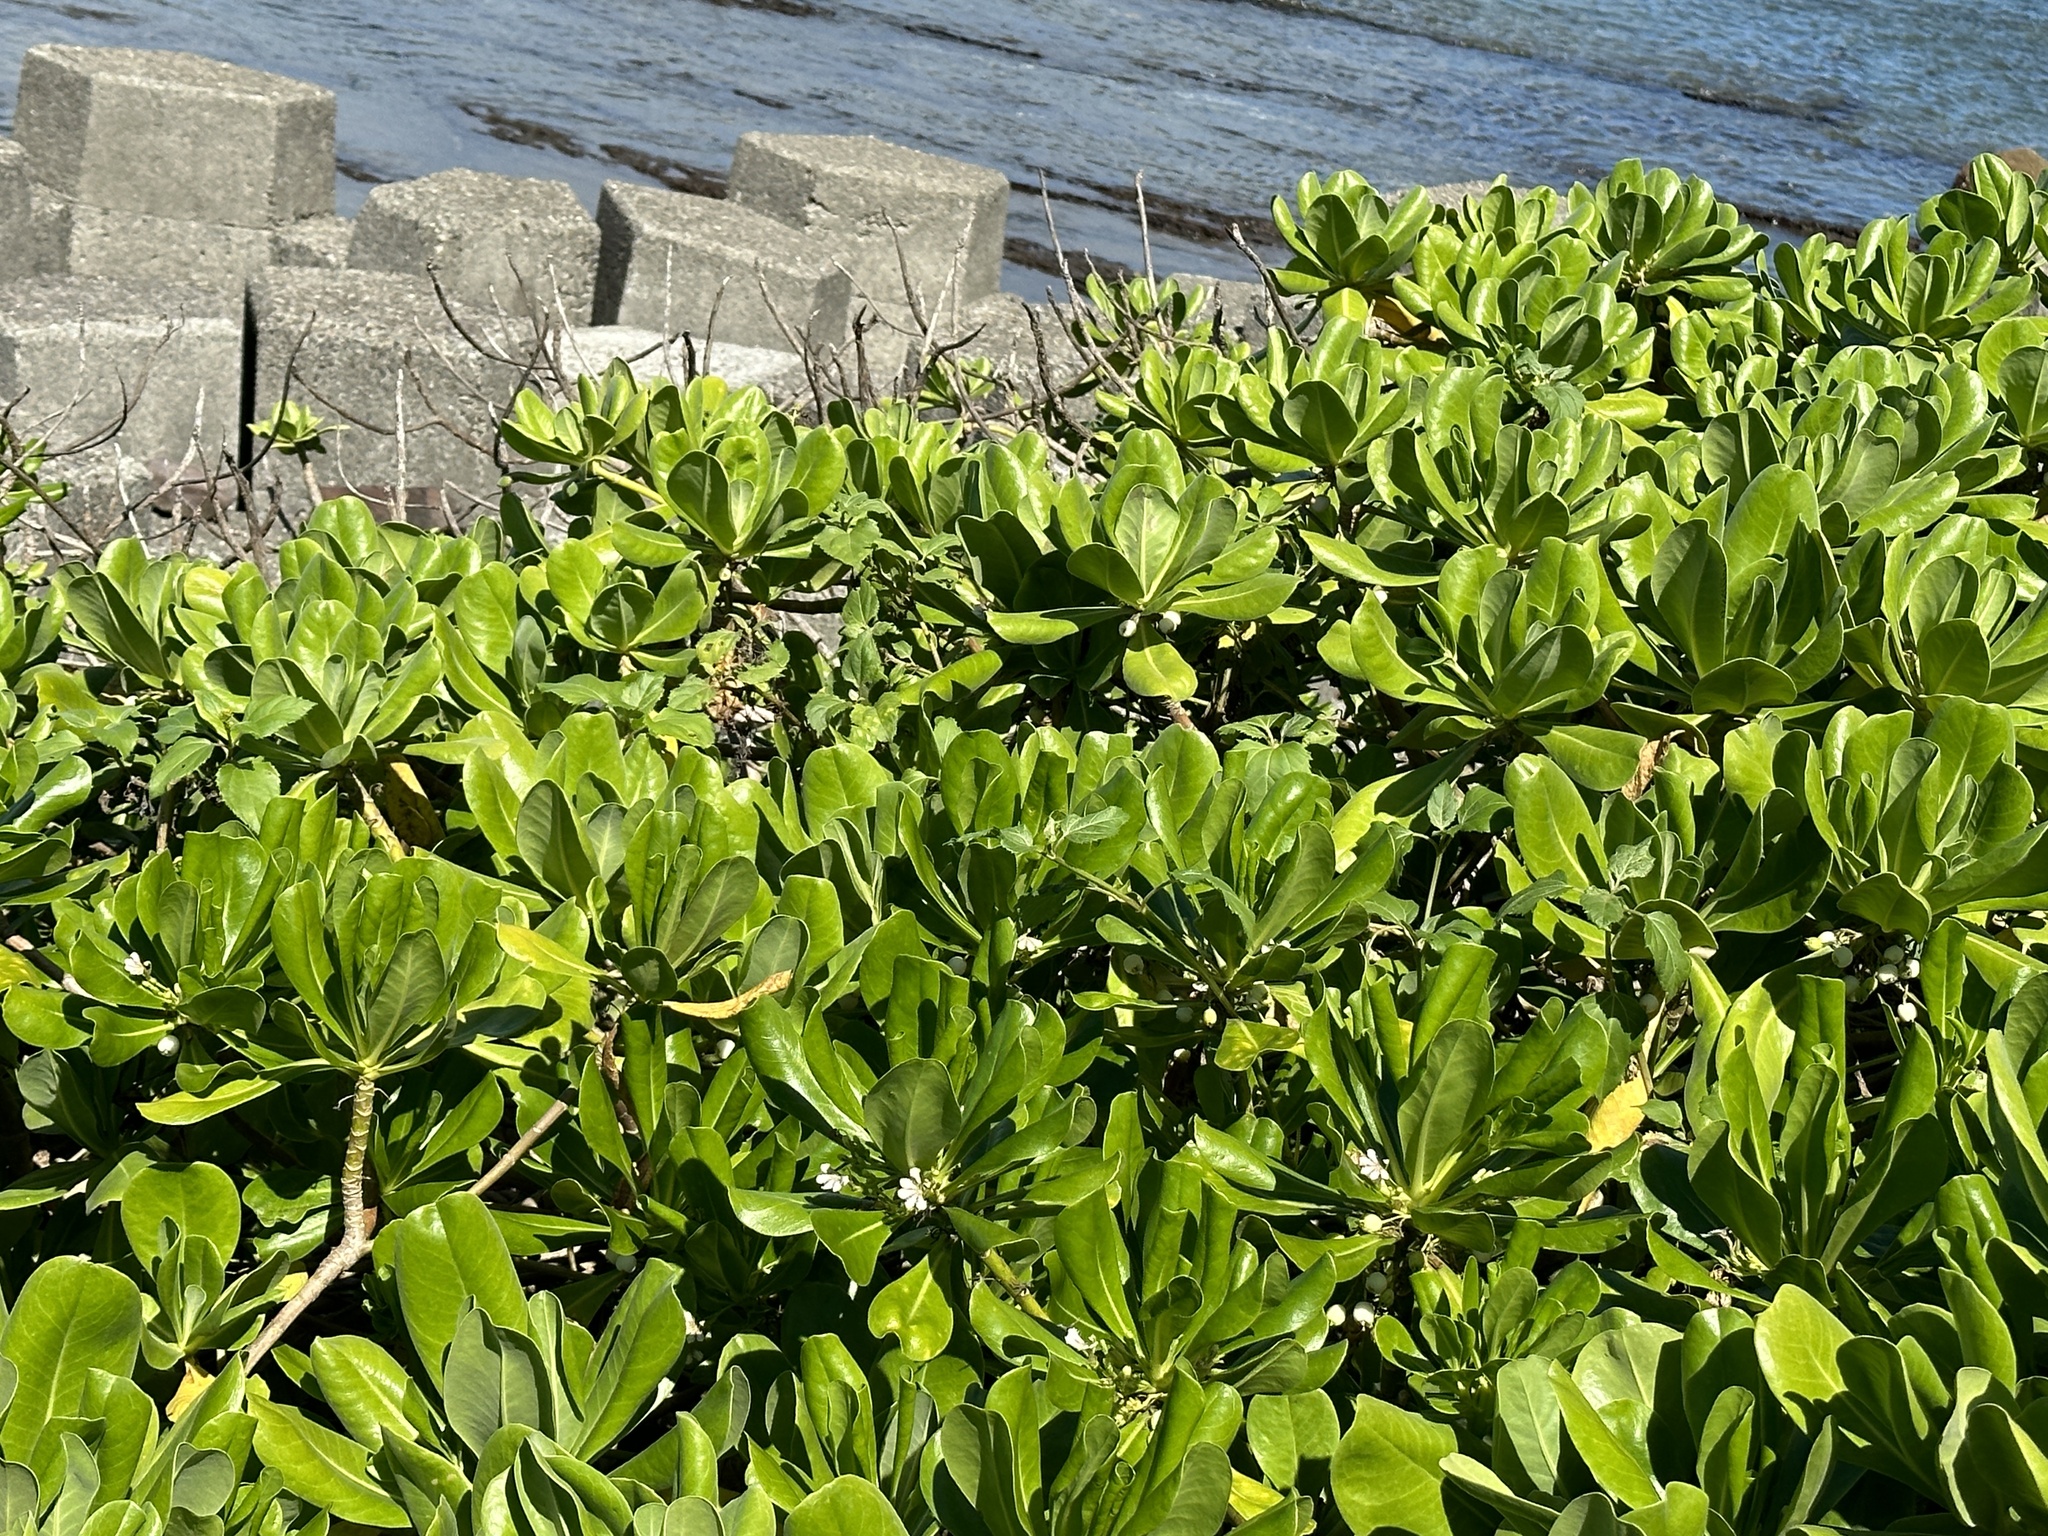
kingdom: Plantae
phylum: Tracheophyta
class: Magnoliopsida
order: Asterales
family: Goodeniaceae
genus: Scaevola
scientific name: Scaevola taccada
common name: Sea lettucetree
